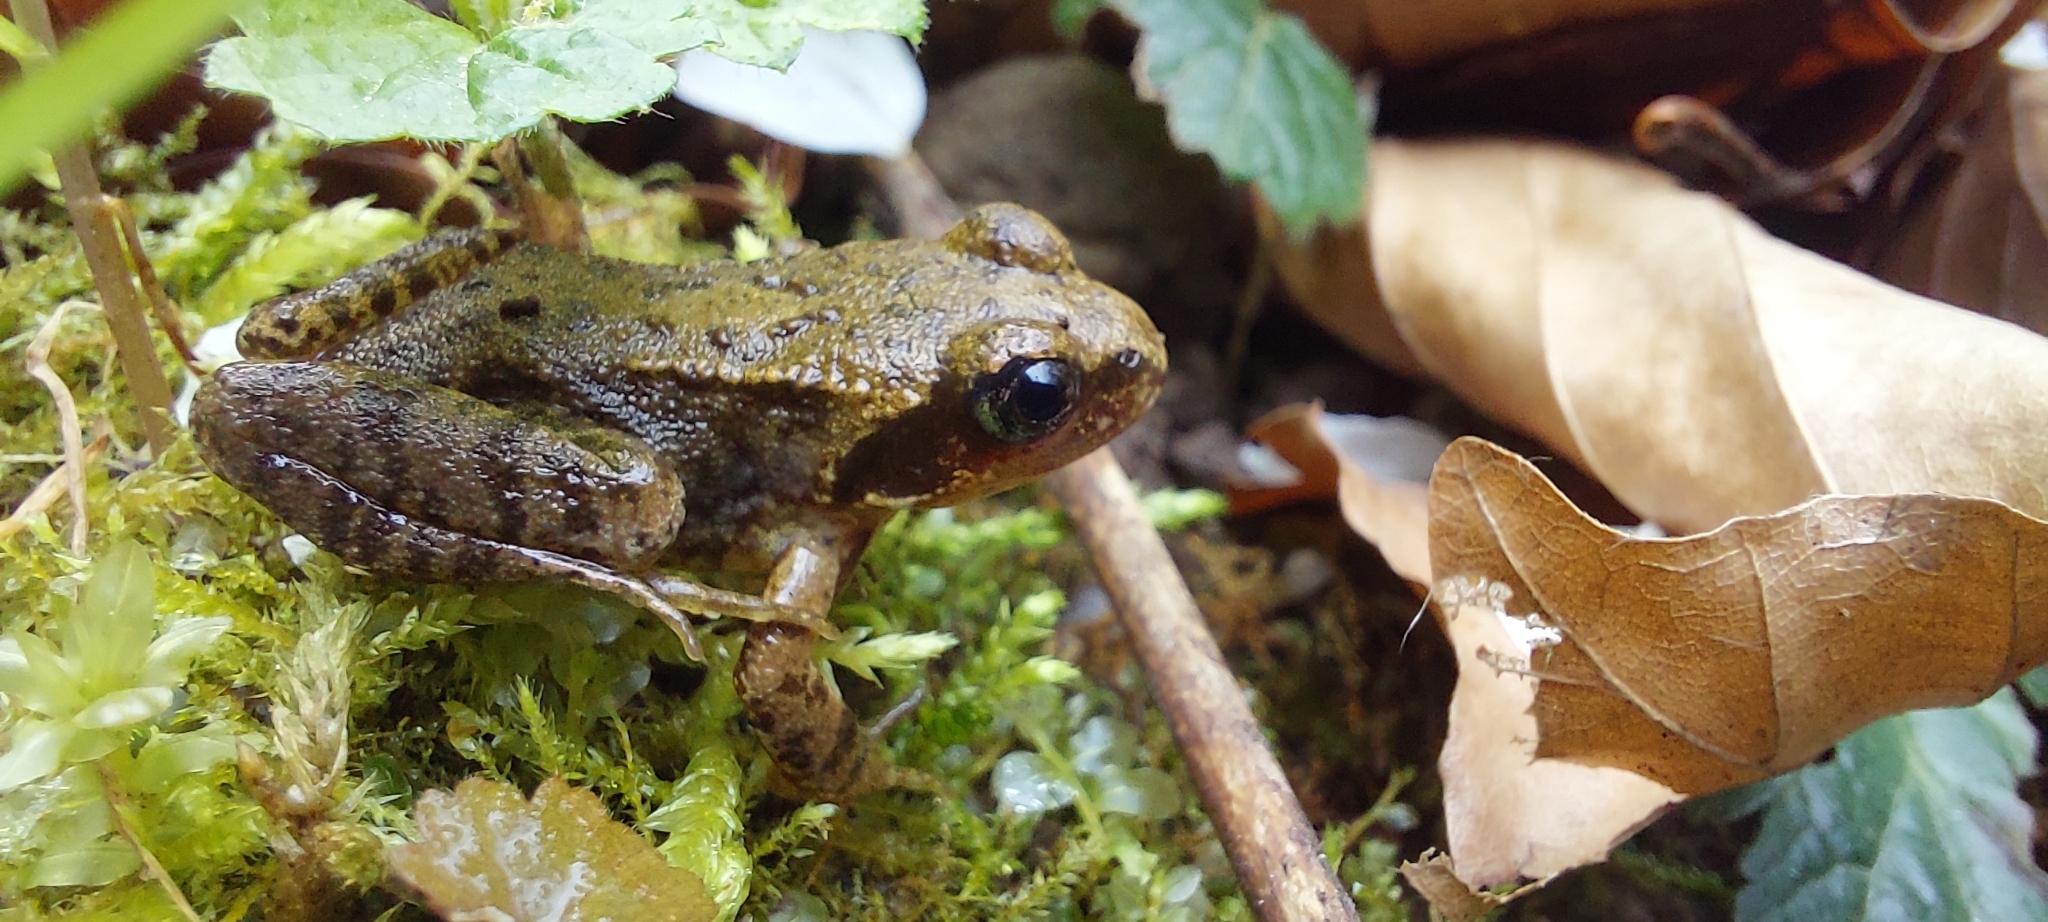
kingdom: Animalia
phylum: Chordata
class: Amphibia
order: Anura
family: Ranidae
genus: Rana
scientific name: Rana temporaria
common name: Common frog
